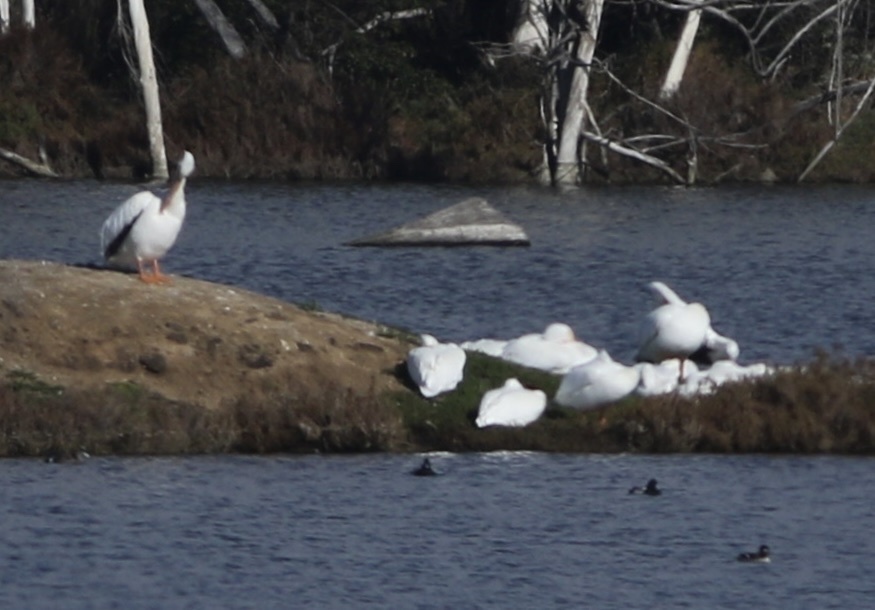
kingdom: Animalia
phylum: Chordata
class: Aves
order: Pelecaniformes
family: Pelecanidae
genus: Pelecanus
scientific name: Pelecanus erythrorhynchos
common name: American white pelican
